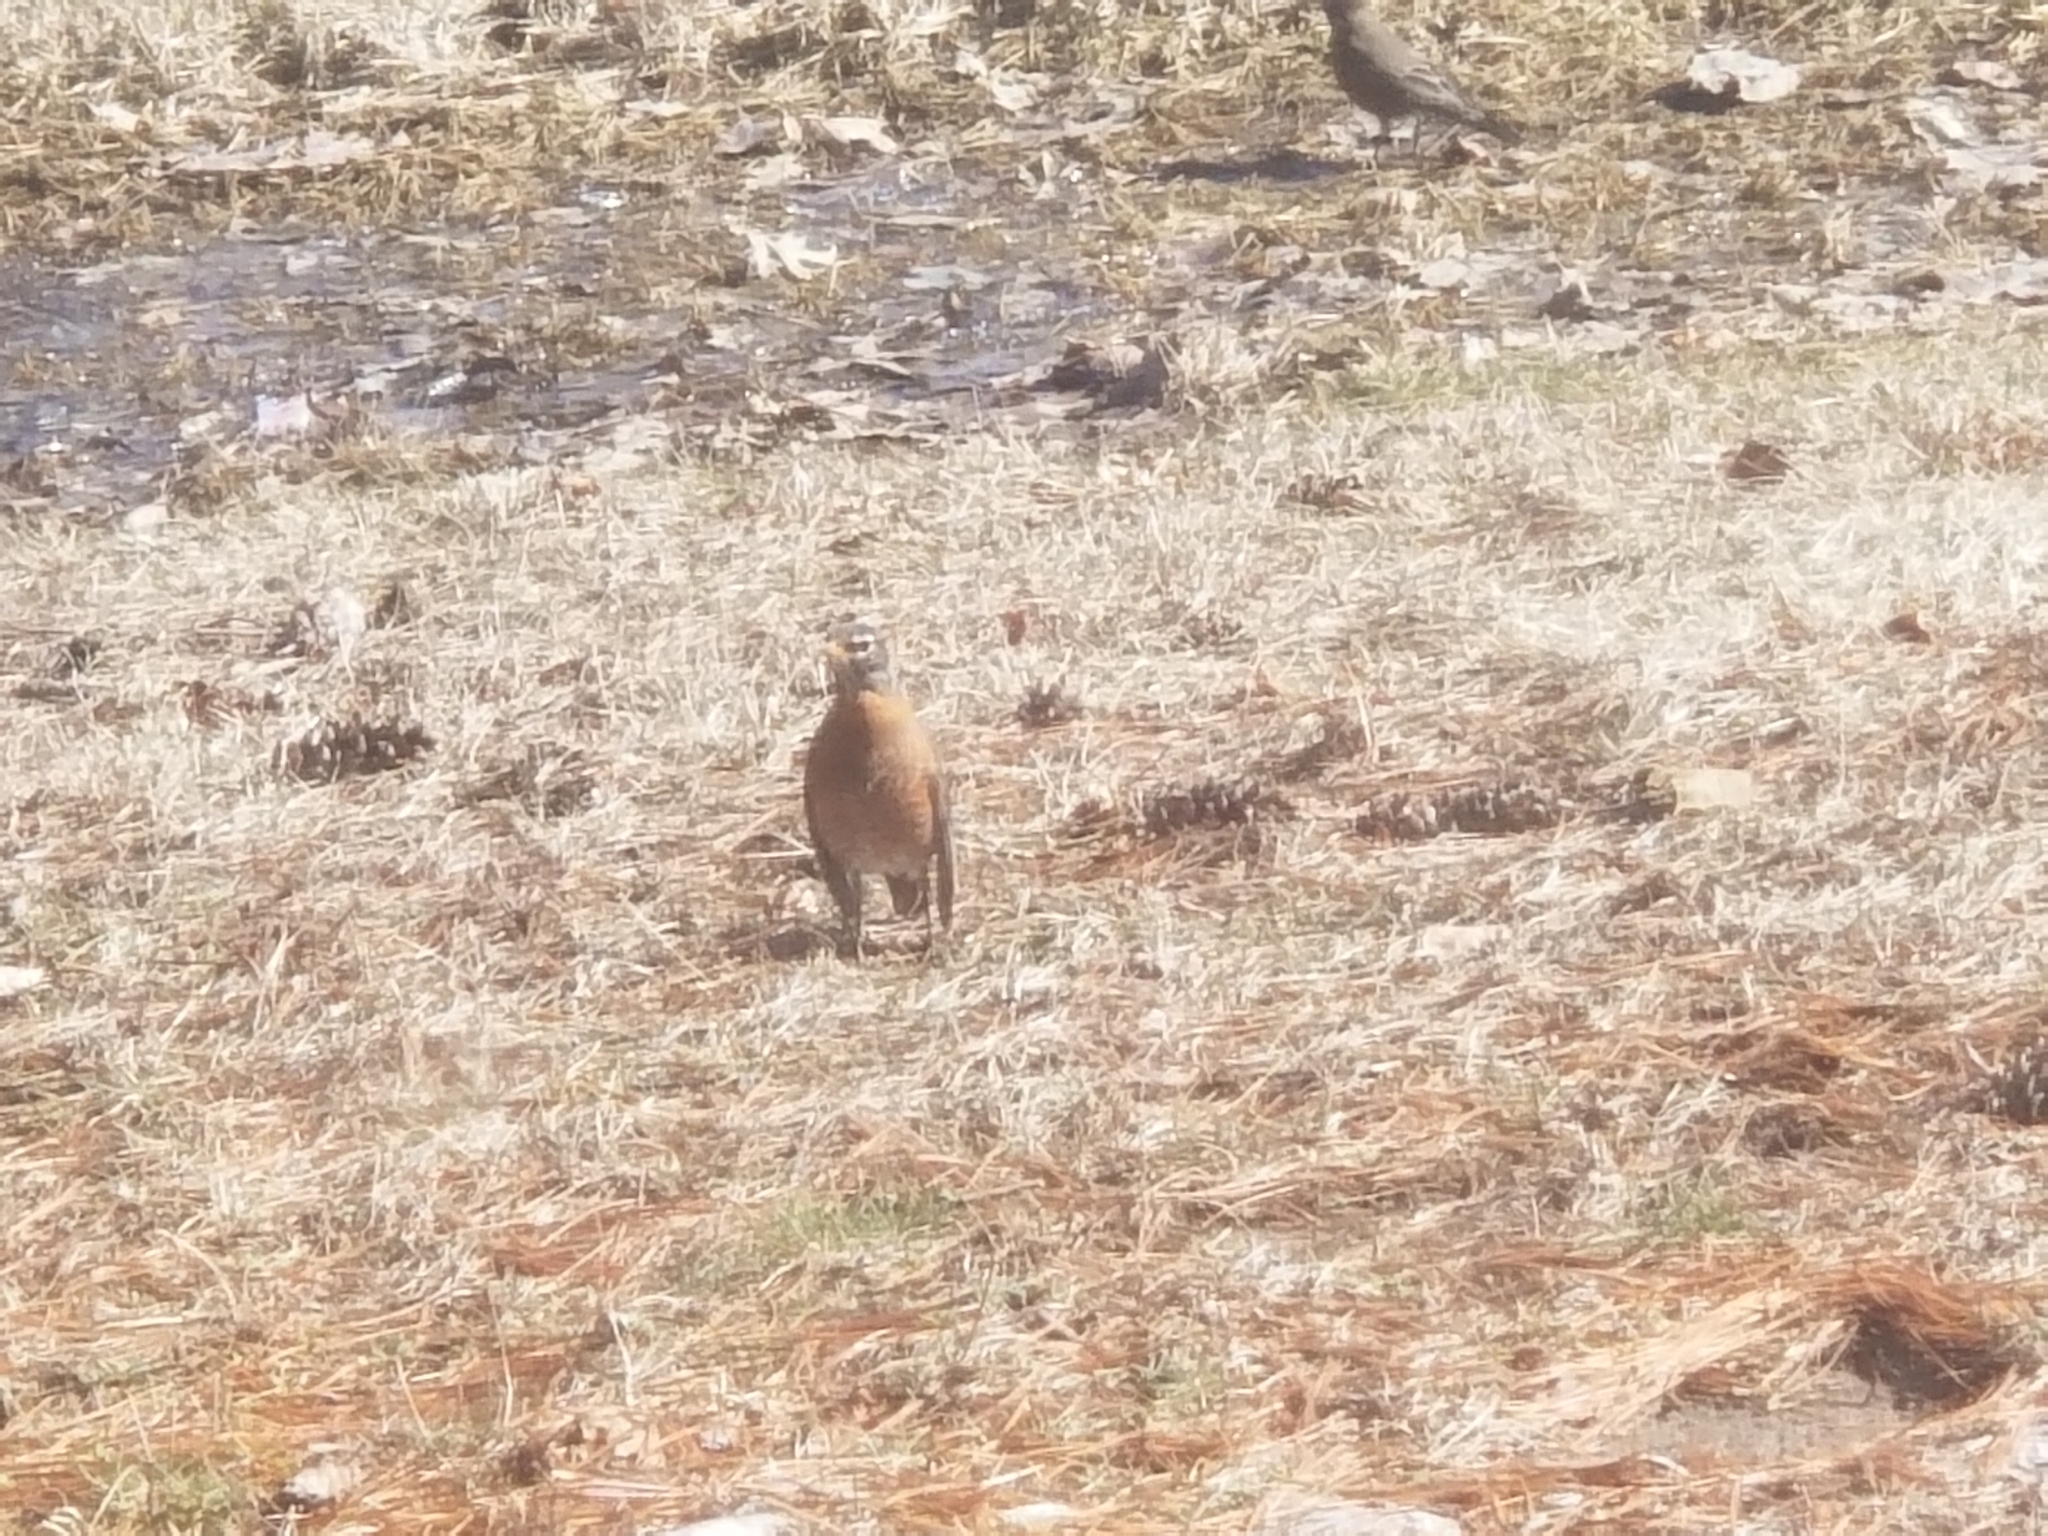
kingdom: Animalia
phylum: Chordata
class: Aves
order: Passeriformes
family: Turdidae
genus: Turdus
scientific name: Turdus migratorius
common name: American robin
